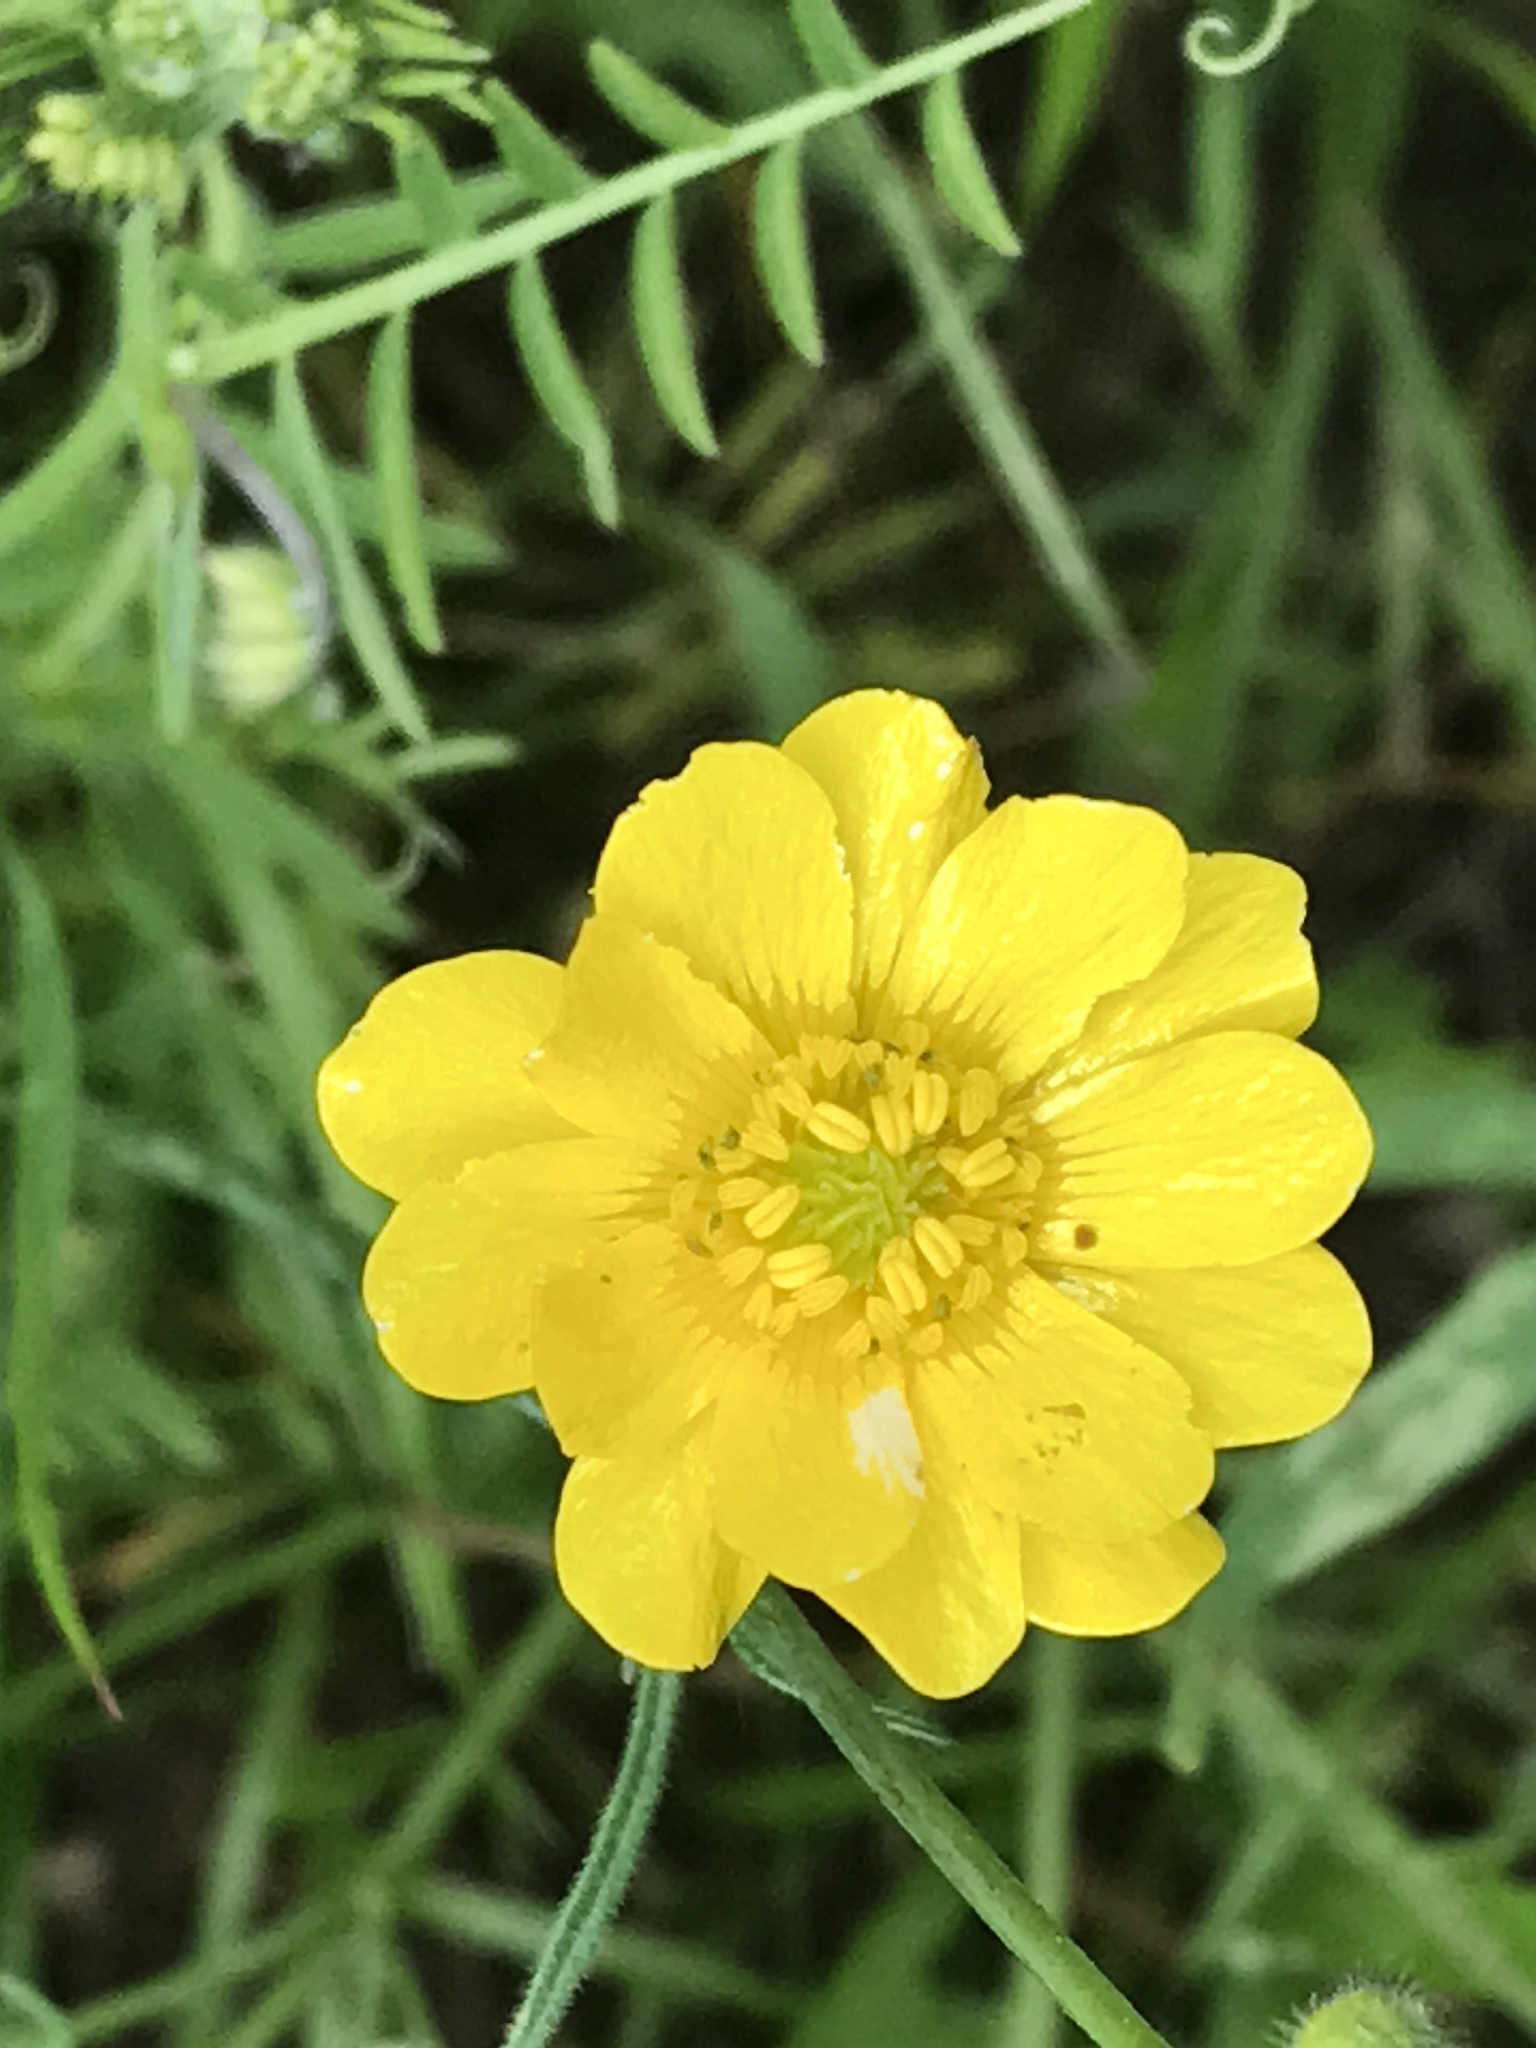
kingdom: Plantae
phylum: Tracheophyta
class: Magnoliopsida
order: Ranunculales
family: Ranunculaceae
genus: Ranunculus
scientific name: Ranunculus californicus
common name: California buttercup
